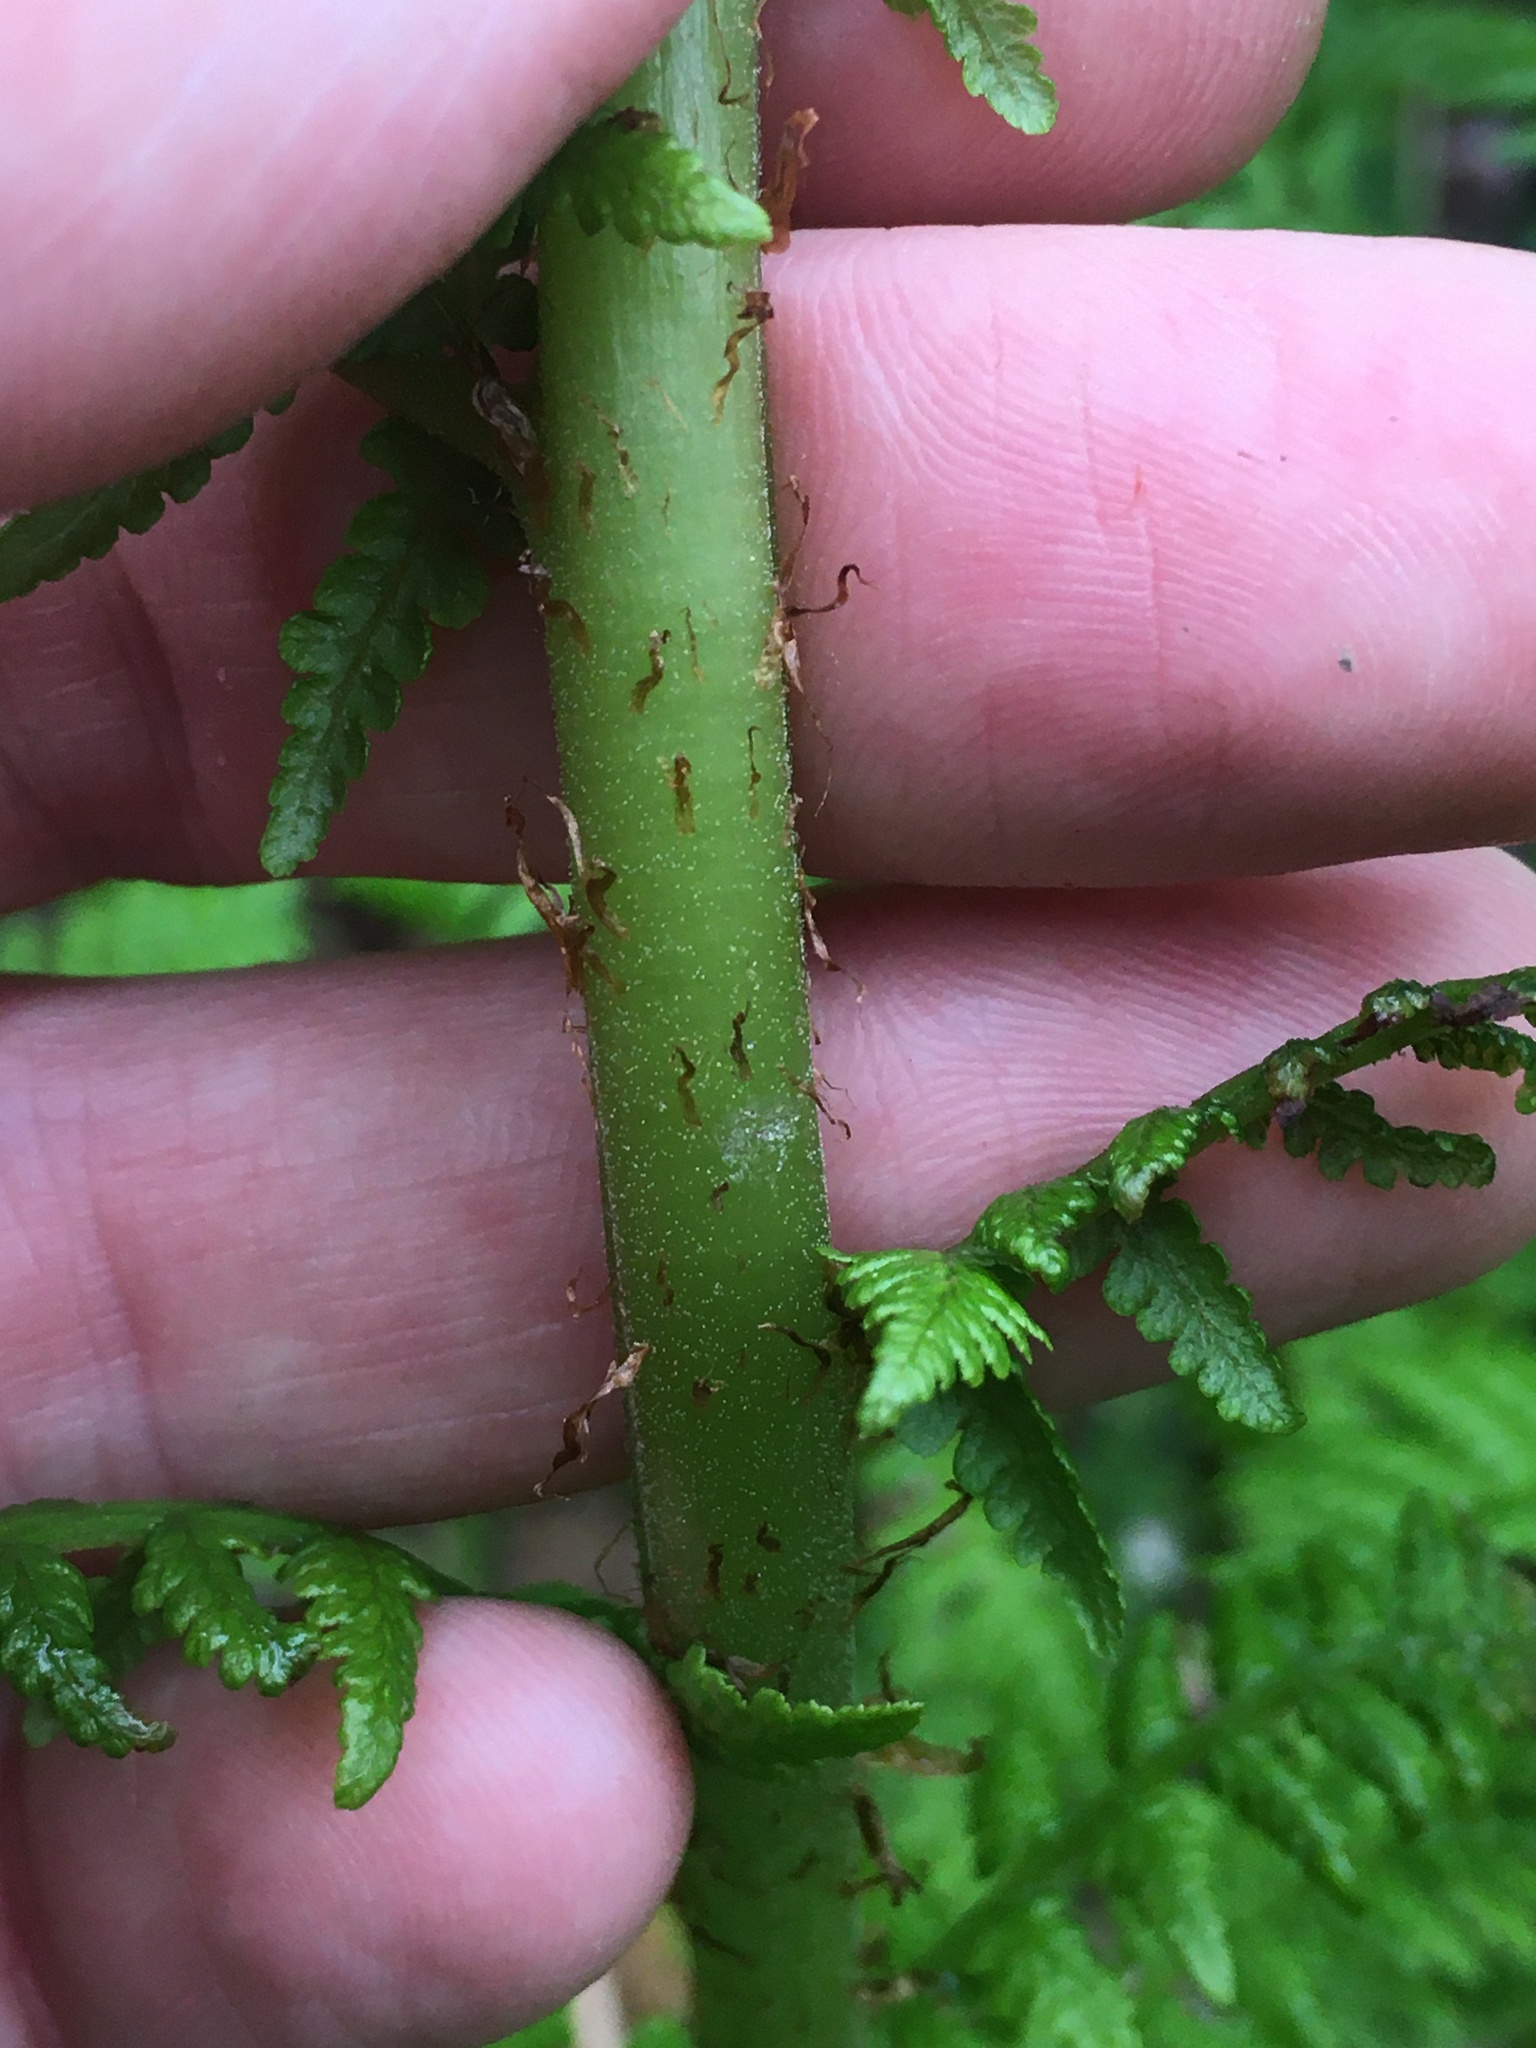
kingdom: Plantae
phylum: Tracheophyta
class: Polypodiopsida
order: Polypodiales
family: Athyriaceae
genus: Athyrium
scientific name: Athyrium cyclosorum
